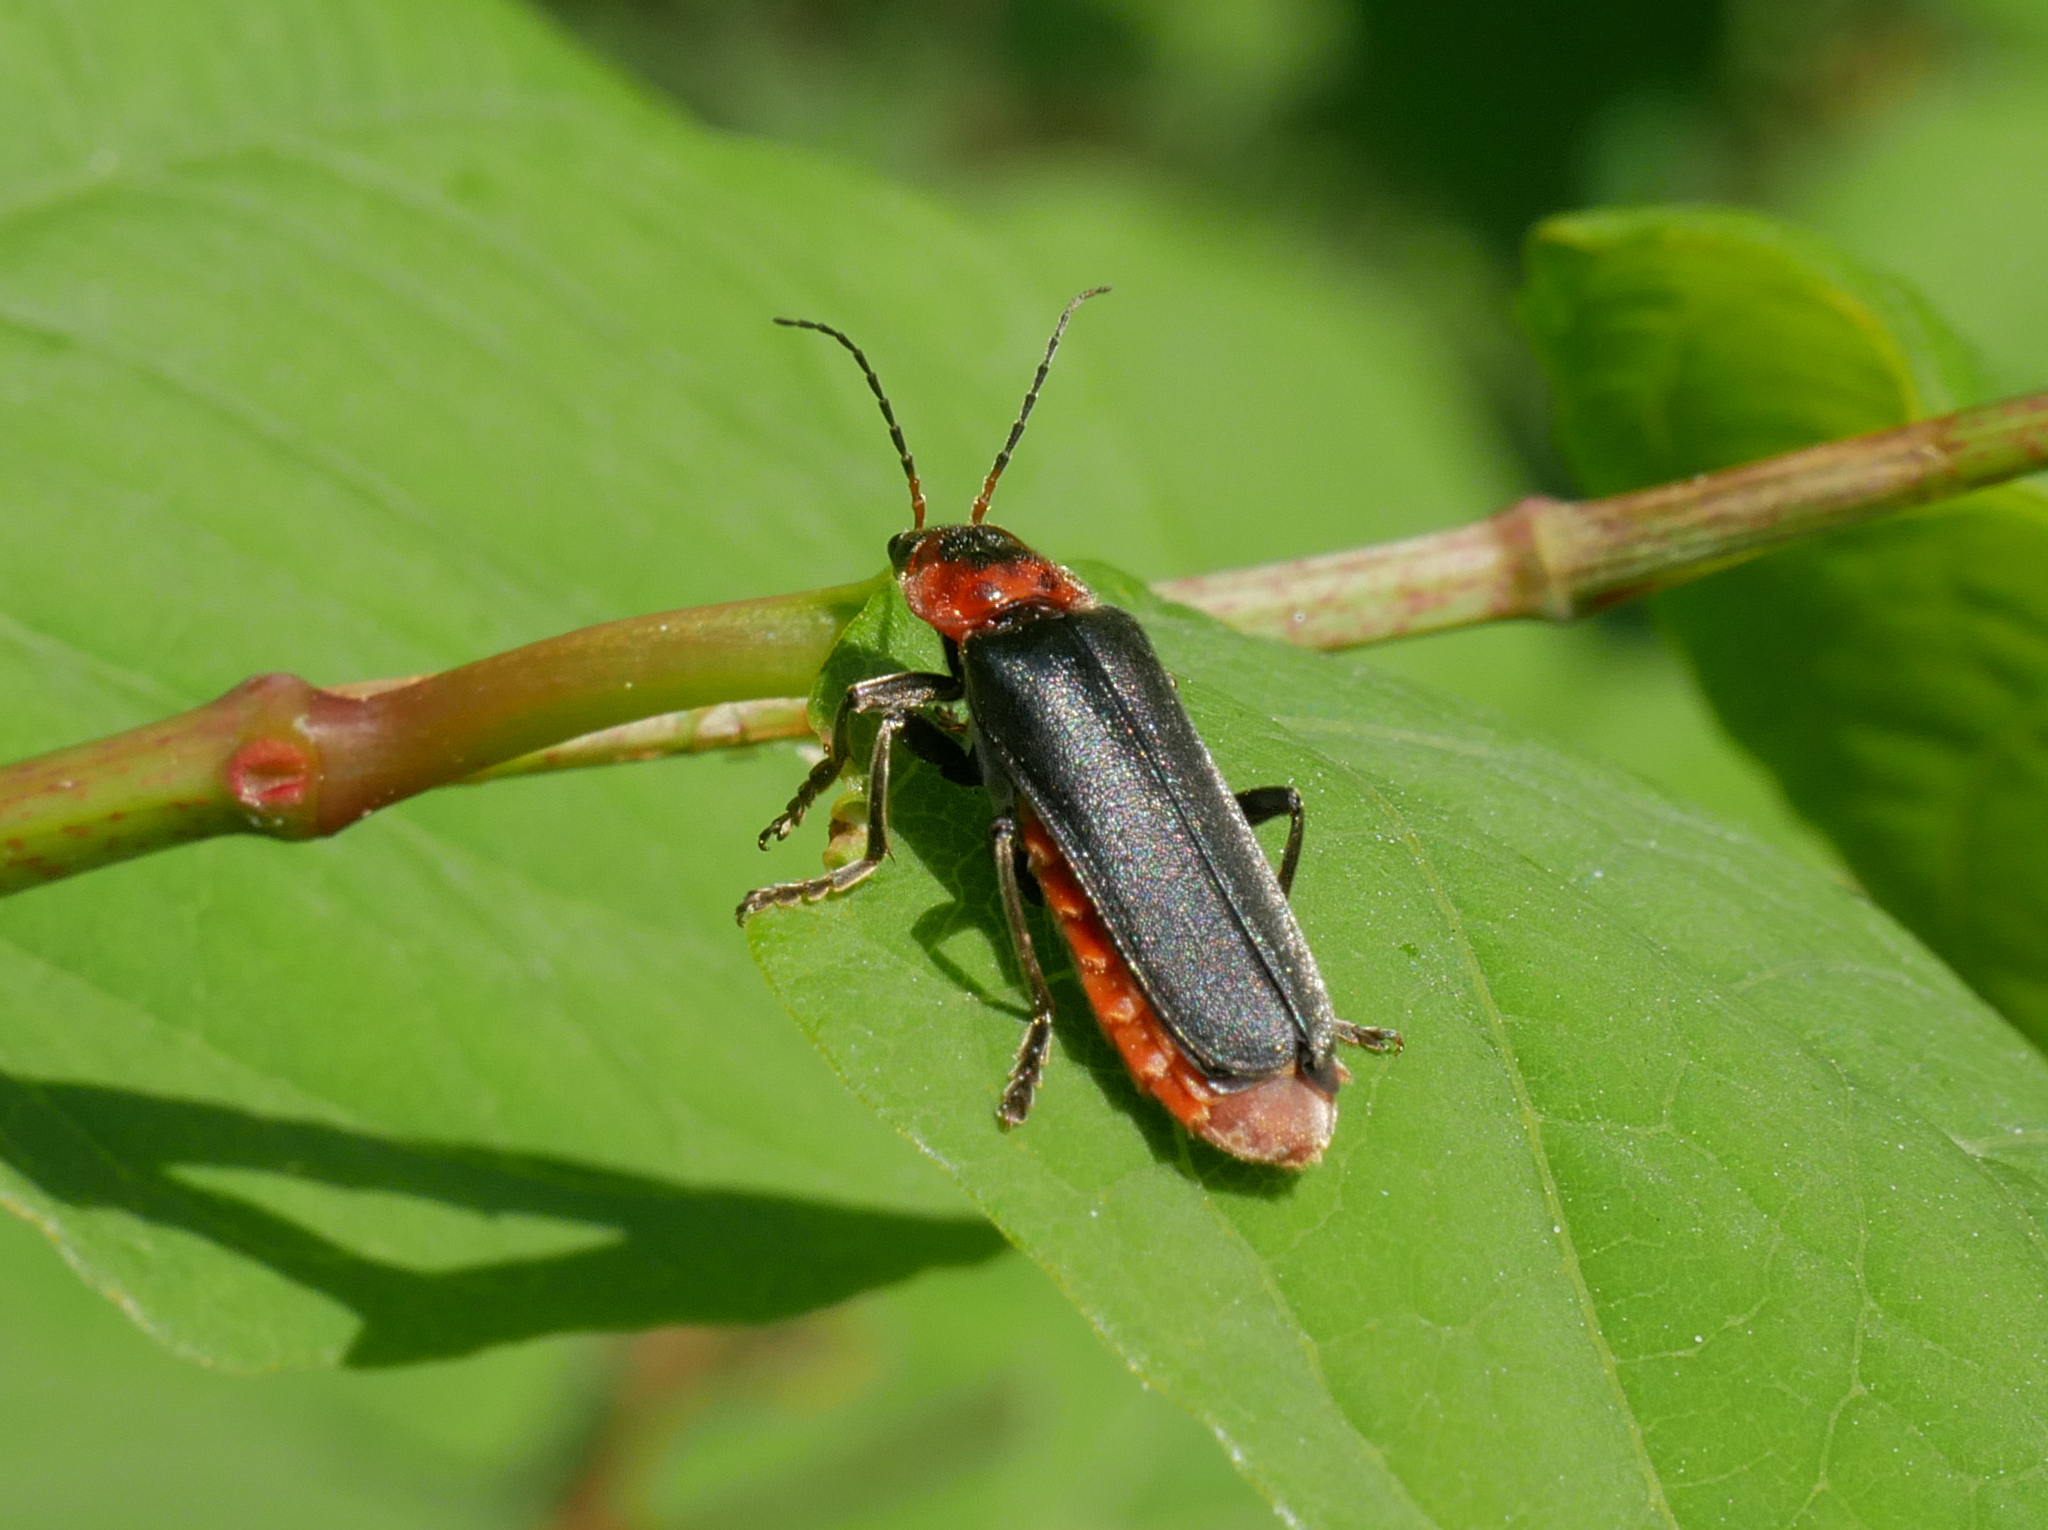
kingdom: Animalia
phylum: Arthropoda
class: Insecta
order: Coleoptera
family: Cantharidae
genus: Cantharis
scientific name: Cantharis fusca
